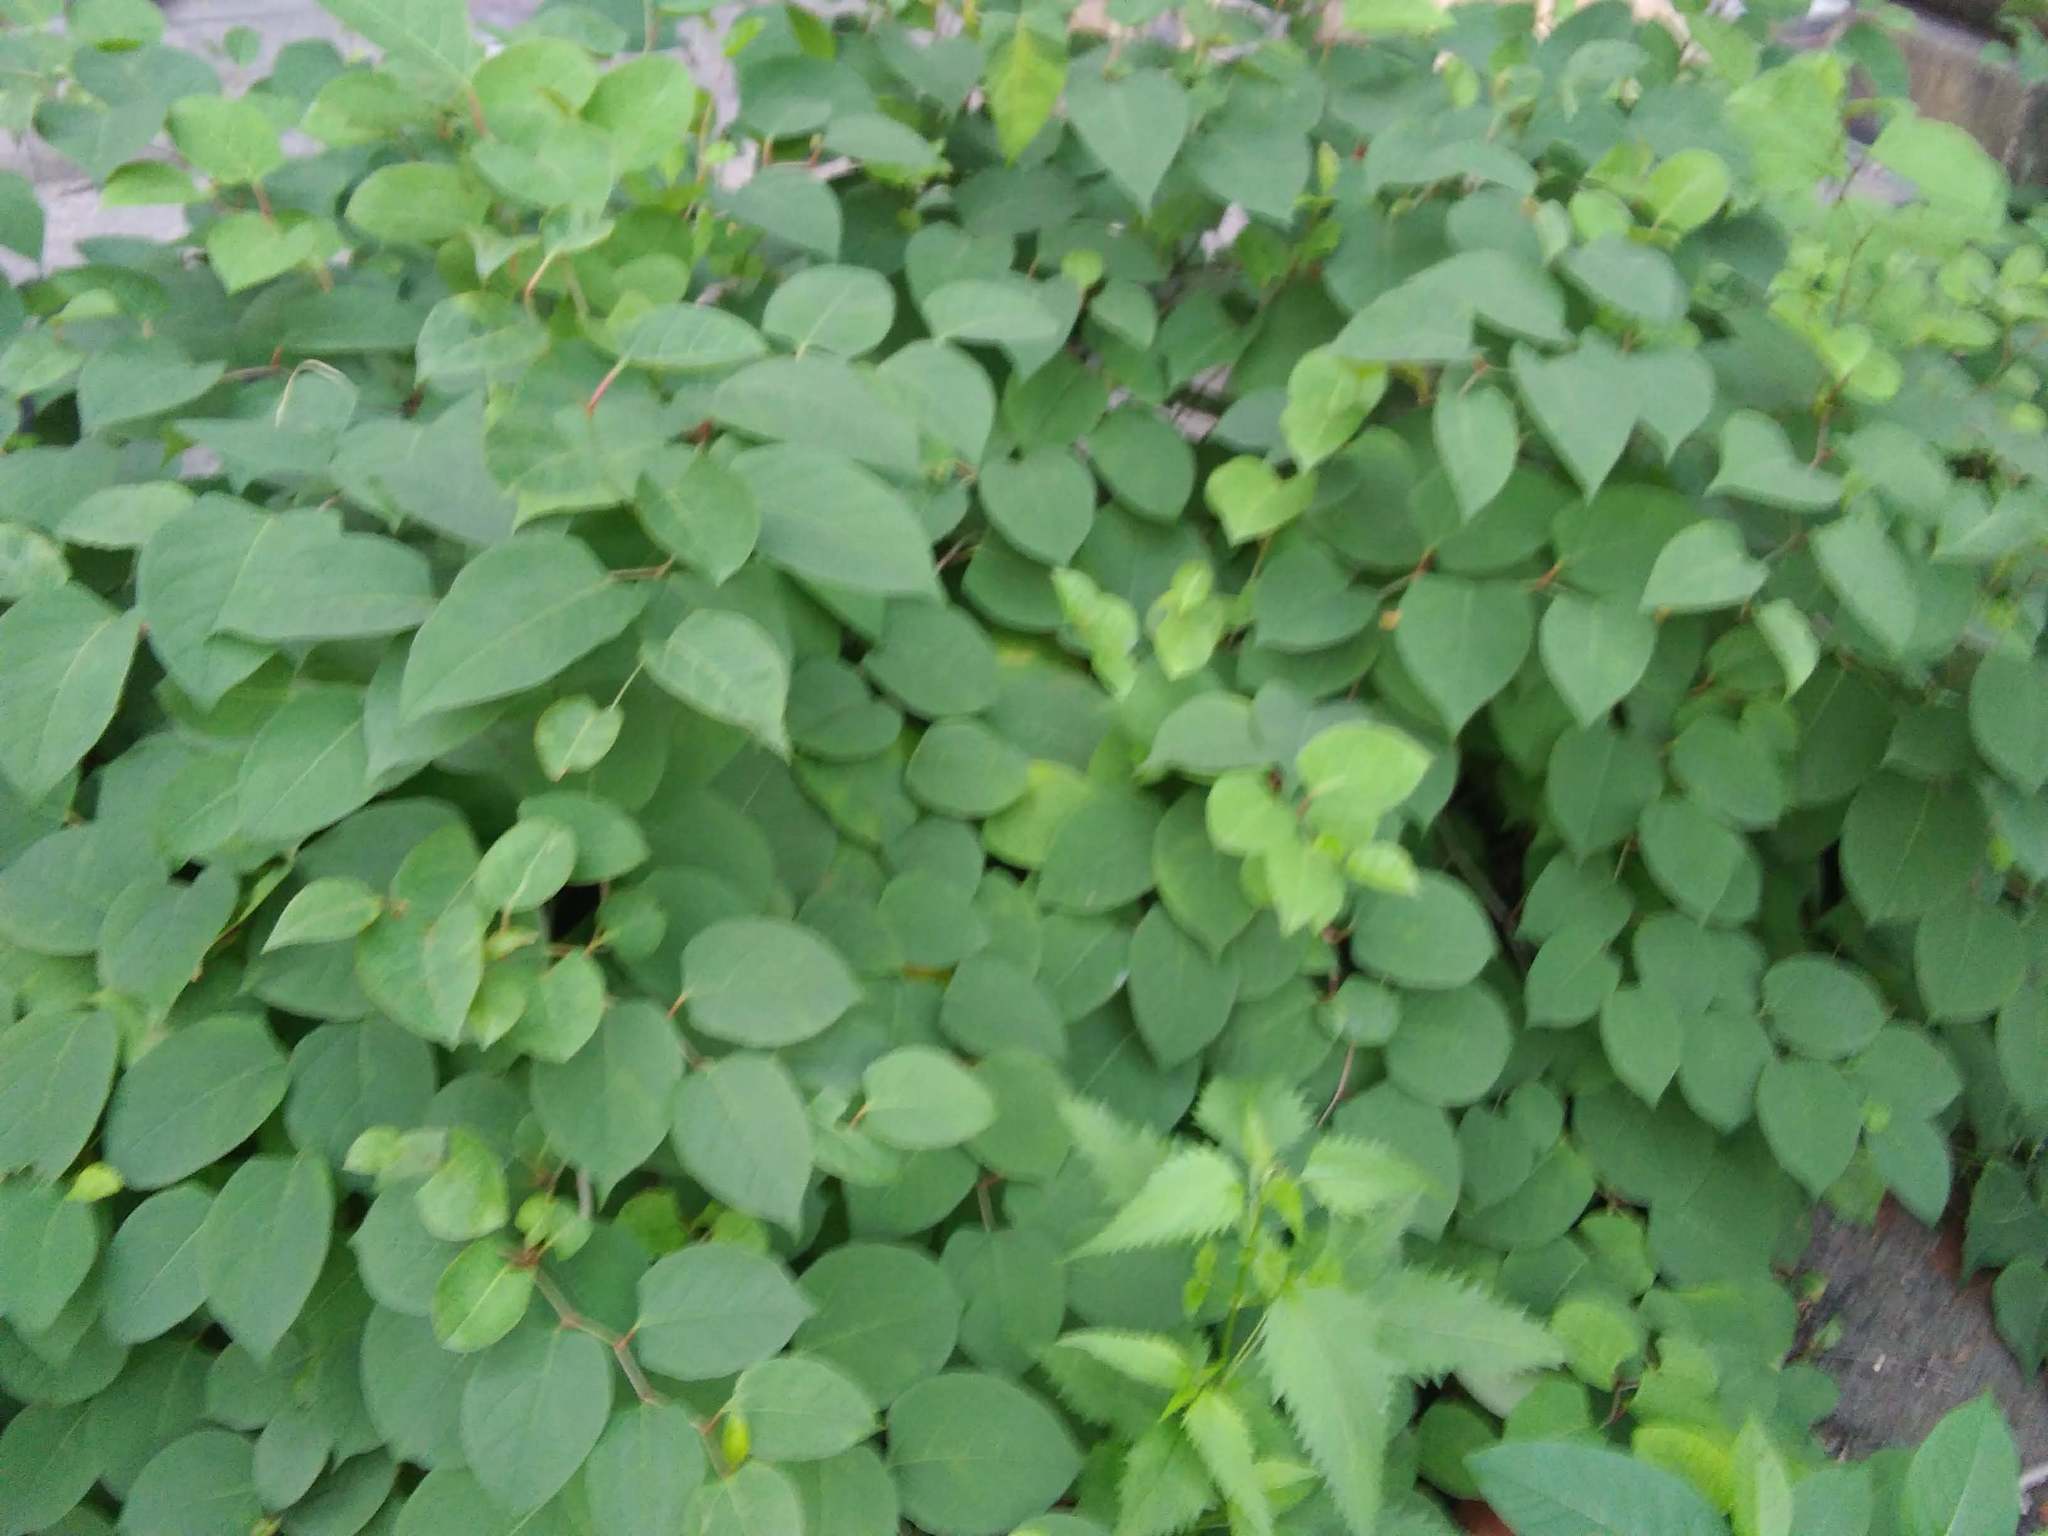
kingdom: Plantae
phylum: Tracheophyta
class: Magnoliopsida
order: Caryophyllales
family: Polygonaceae
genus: Reynoutria
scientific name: Reynoutria japonica
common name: Japanese knotweed
